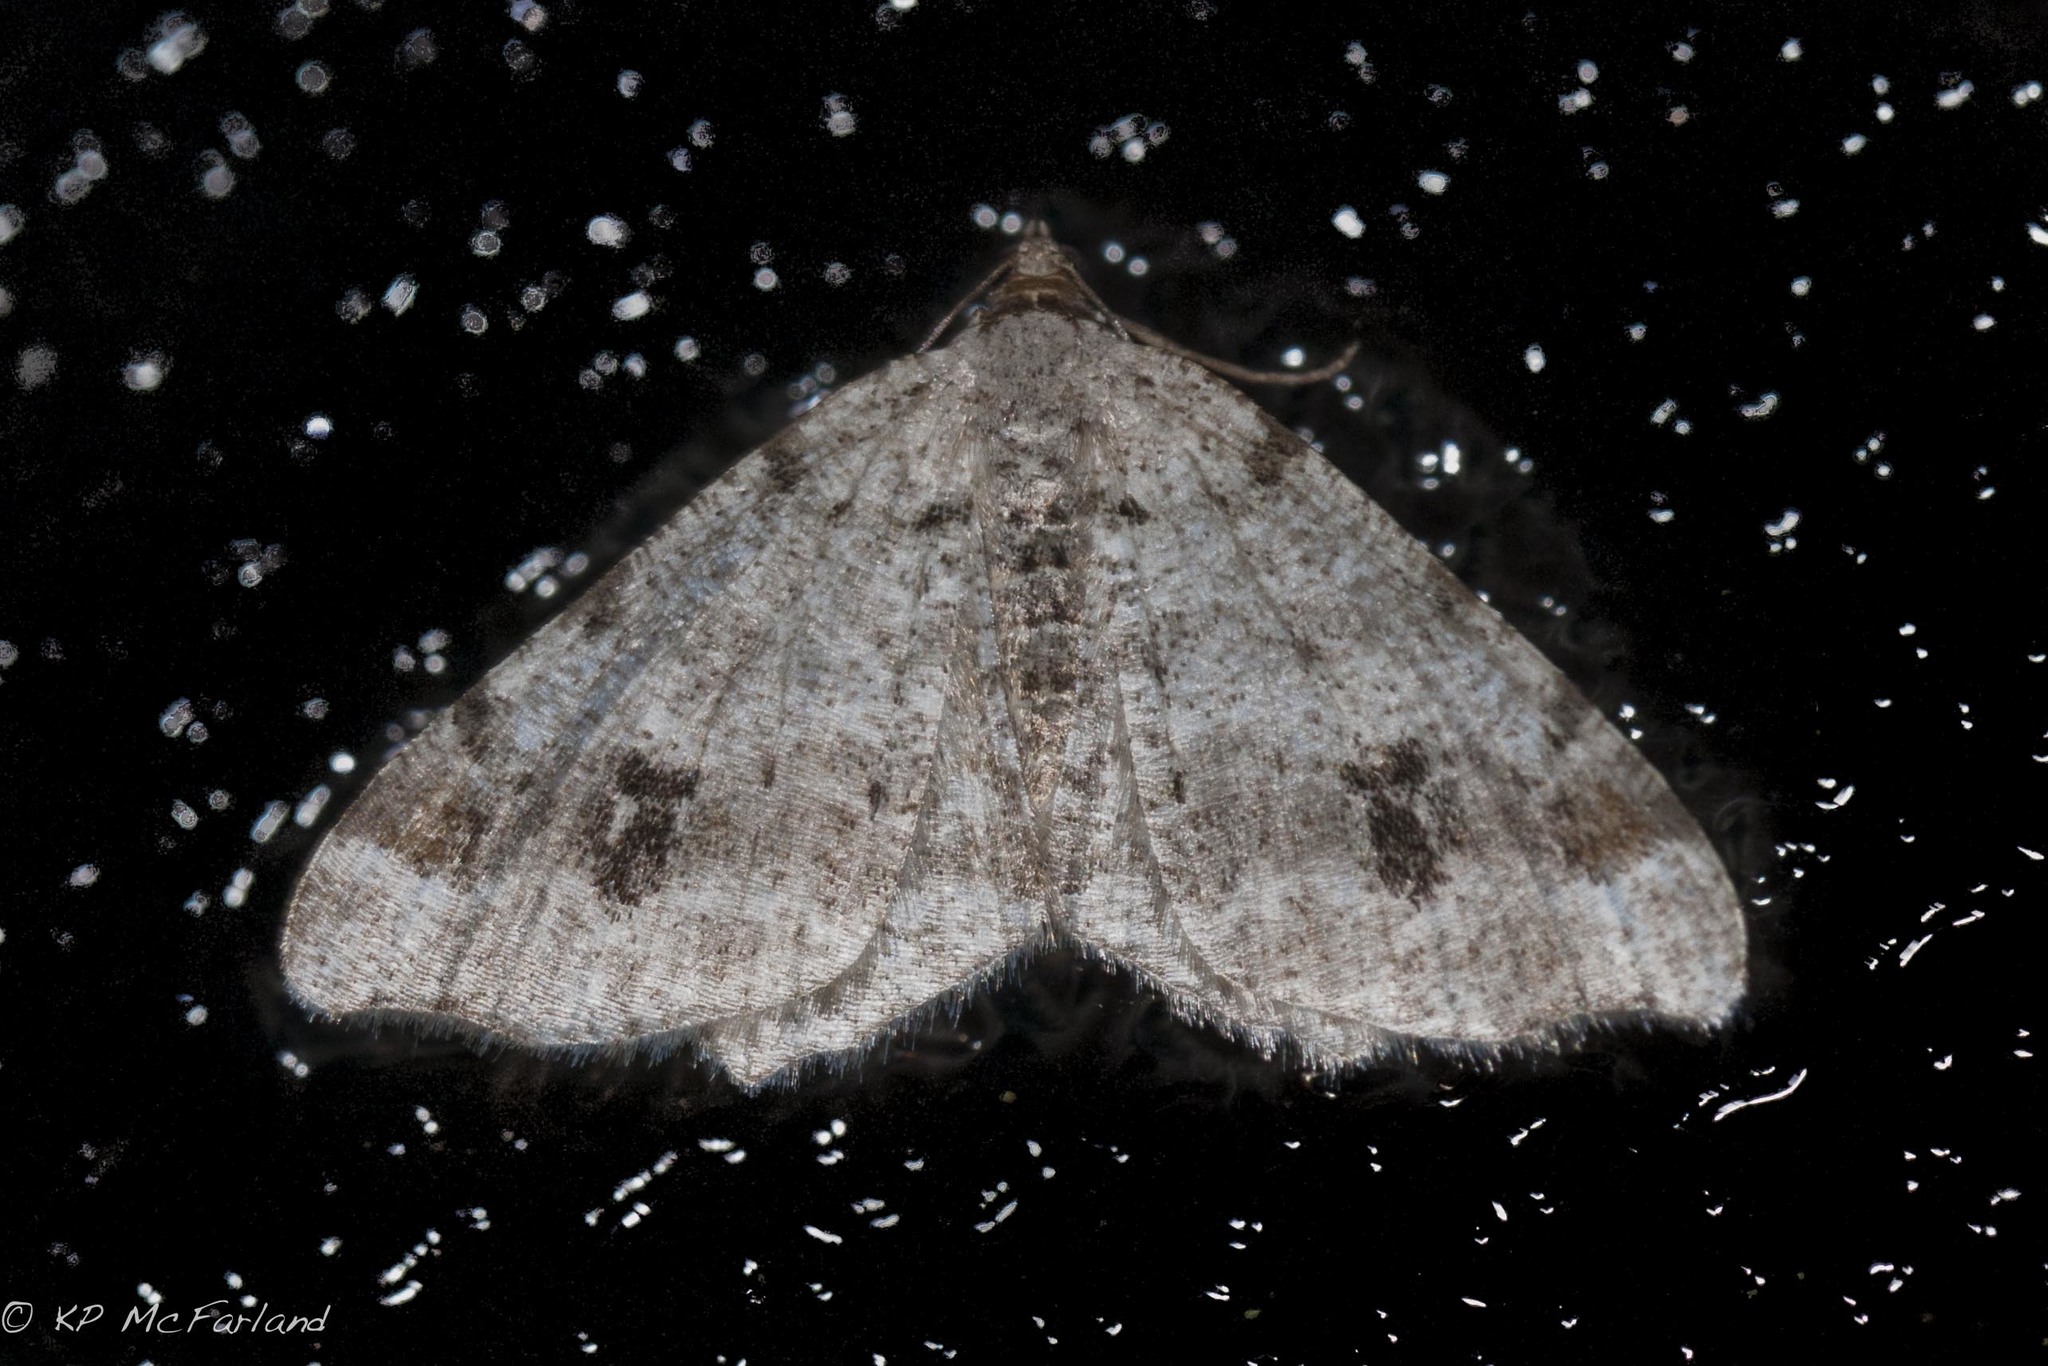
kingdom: Animalia
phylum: Arthropoda
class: Insecta
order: Lepidoptera
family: Geometridae
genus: Macaria
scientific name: Macaria fissinotata
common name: Hemlock angle
